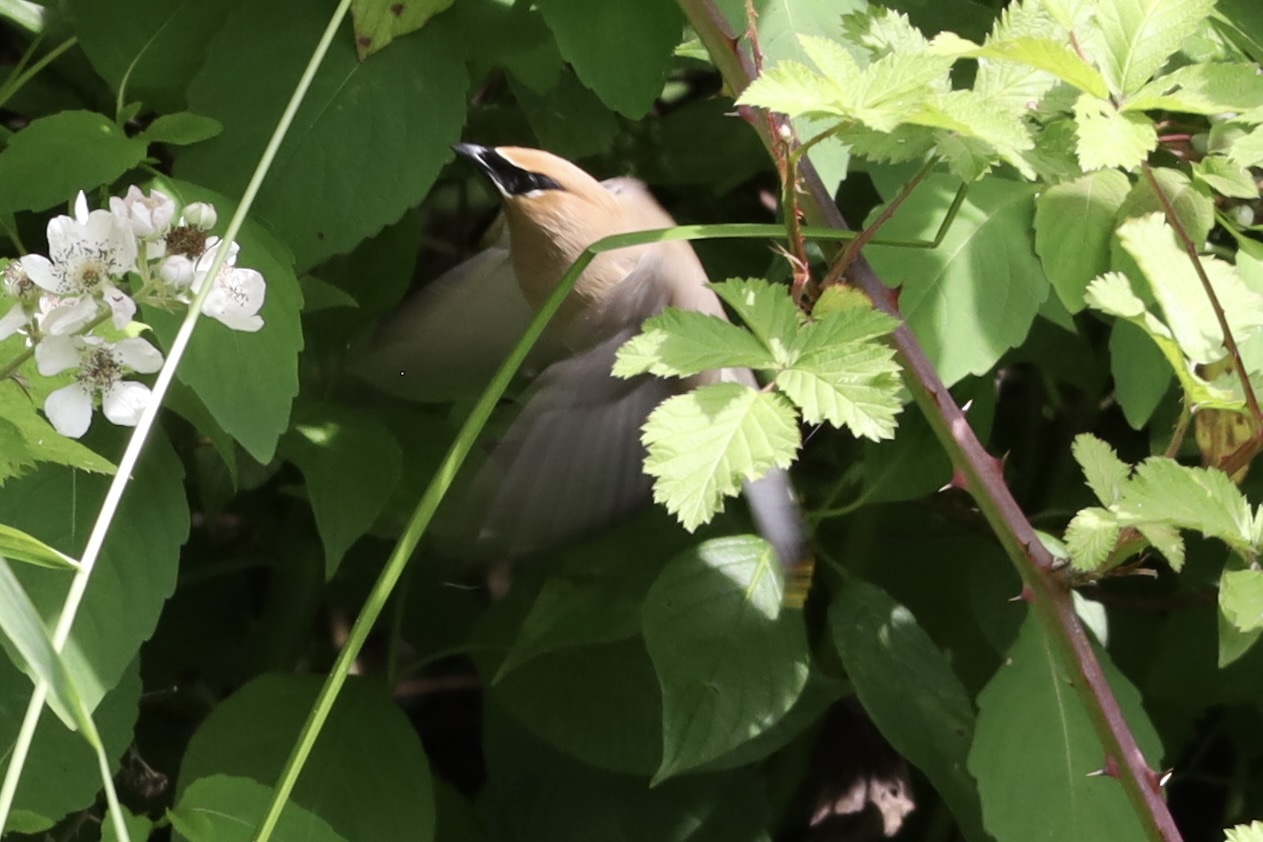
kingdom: Animalia
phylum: Chordata
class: Aves
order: Passeriformes
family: Bombycillidae
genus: Bombycilla
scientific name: Bombycilla cedrorum
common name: Cedar waxwing
